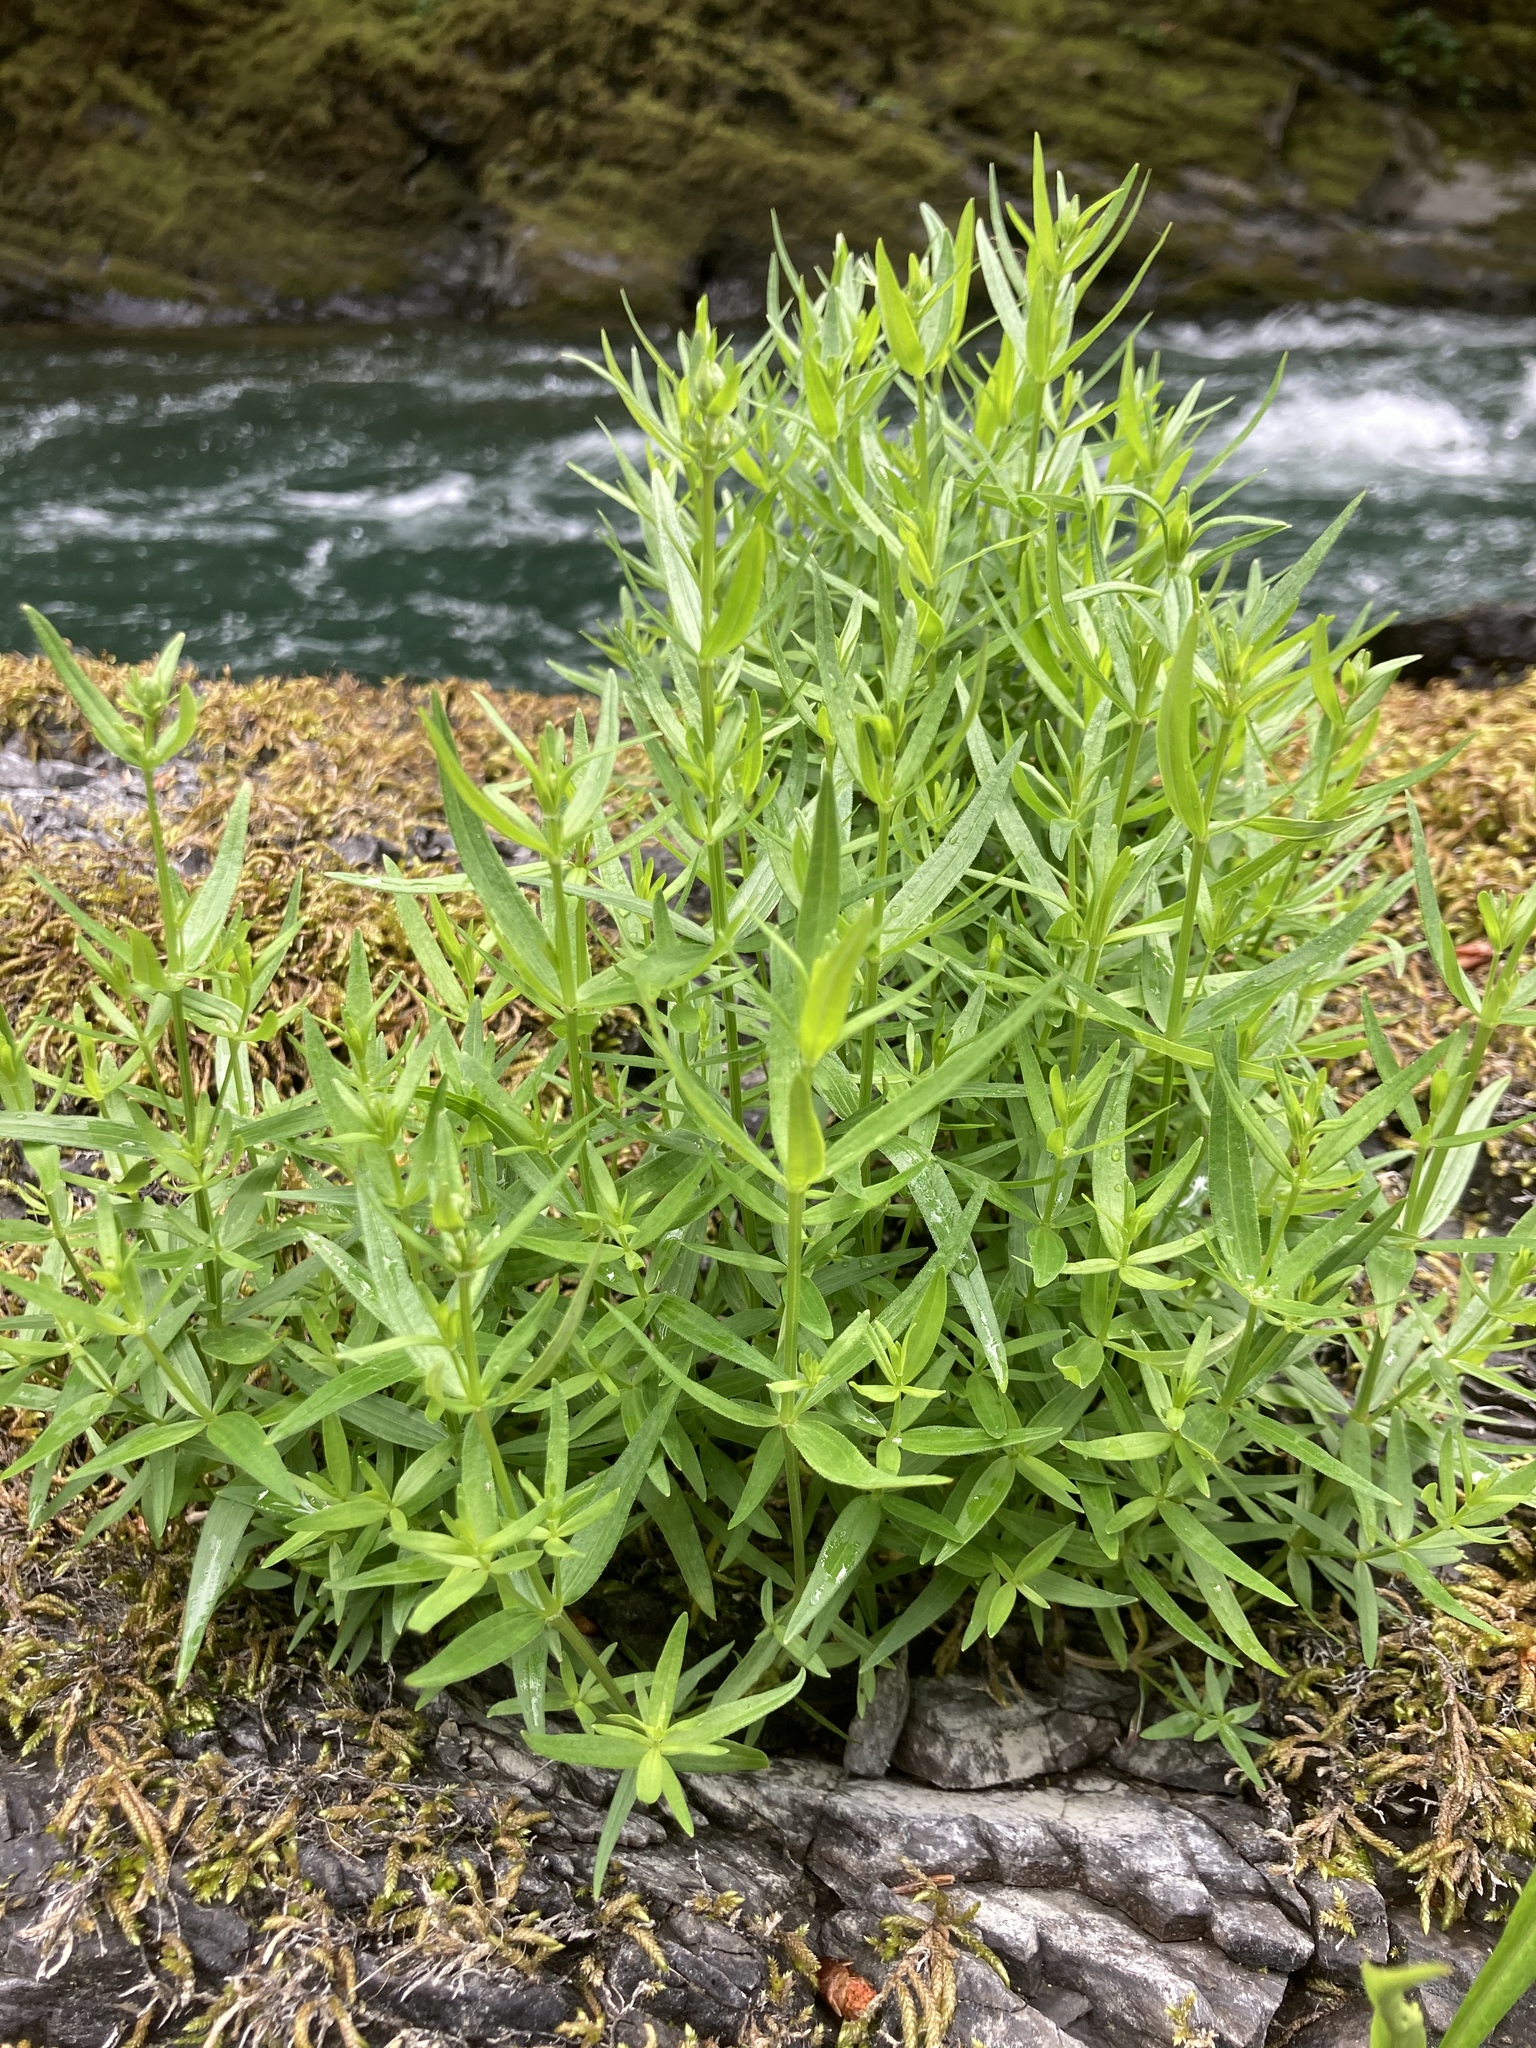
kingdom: Plantae
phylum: Tracheophyta
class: Magnoliopsida
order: Gentianales
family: Rubiaceae
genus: Galium
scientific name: Galium boreale
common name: Northern bedstraw
